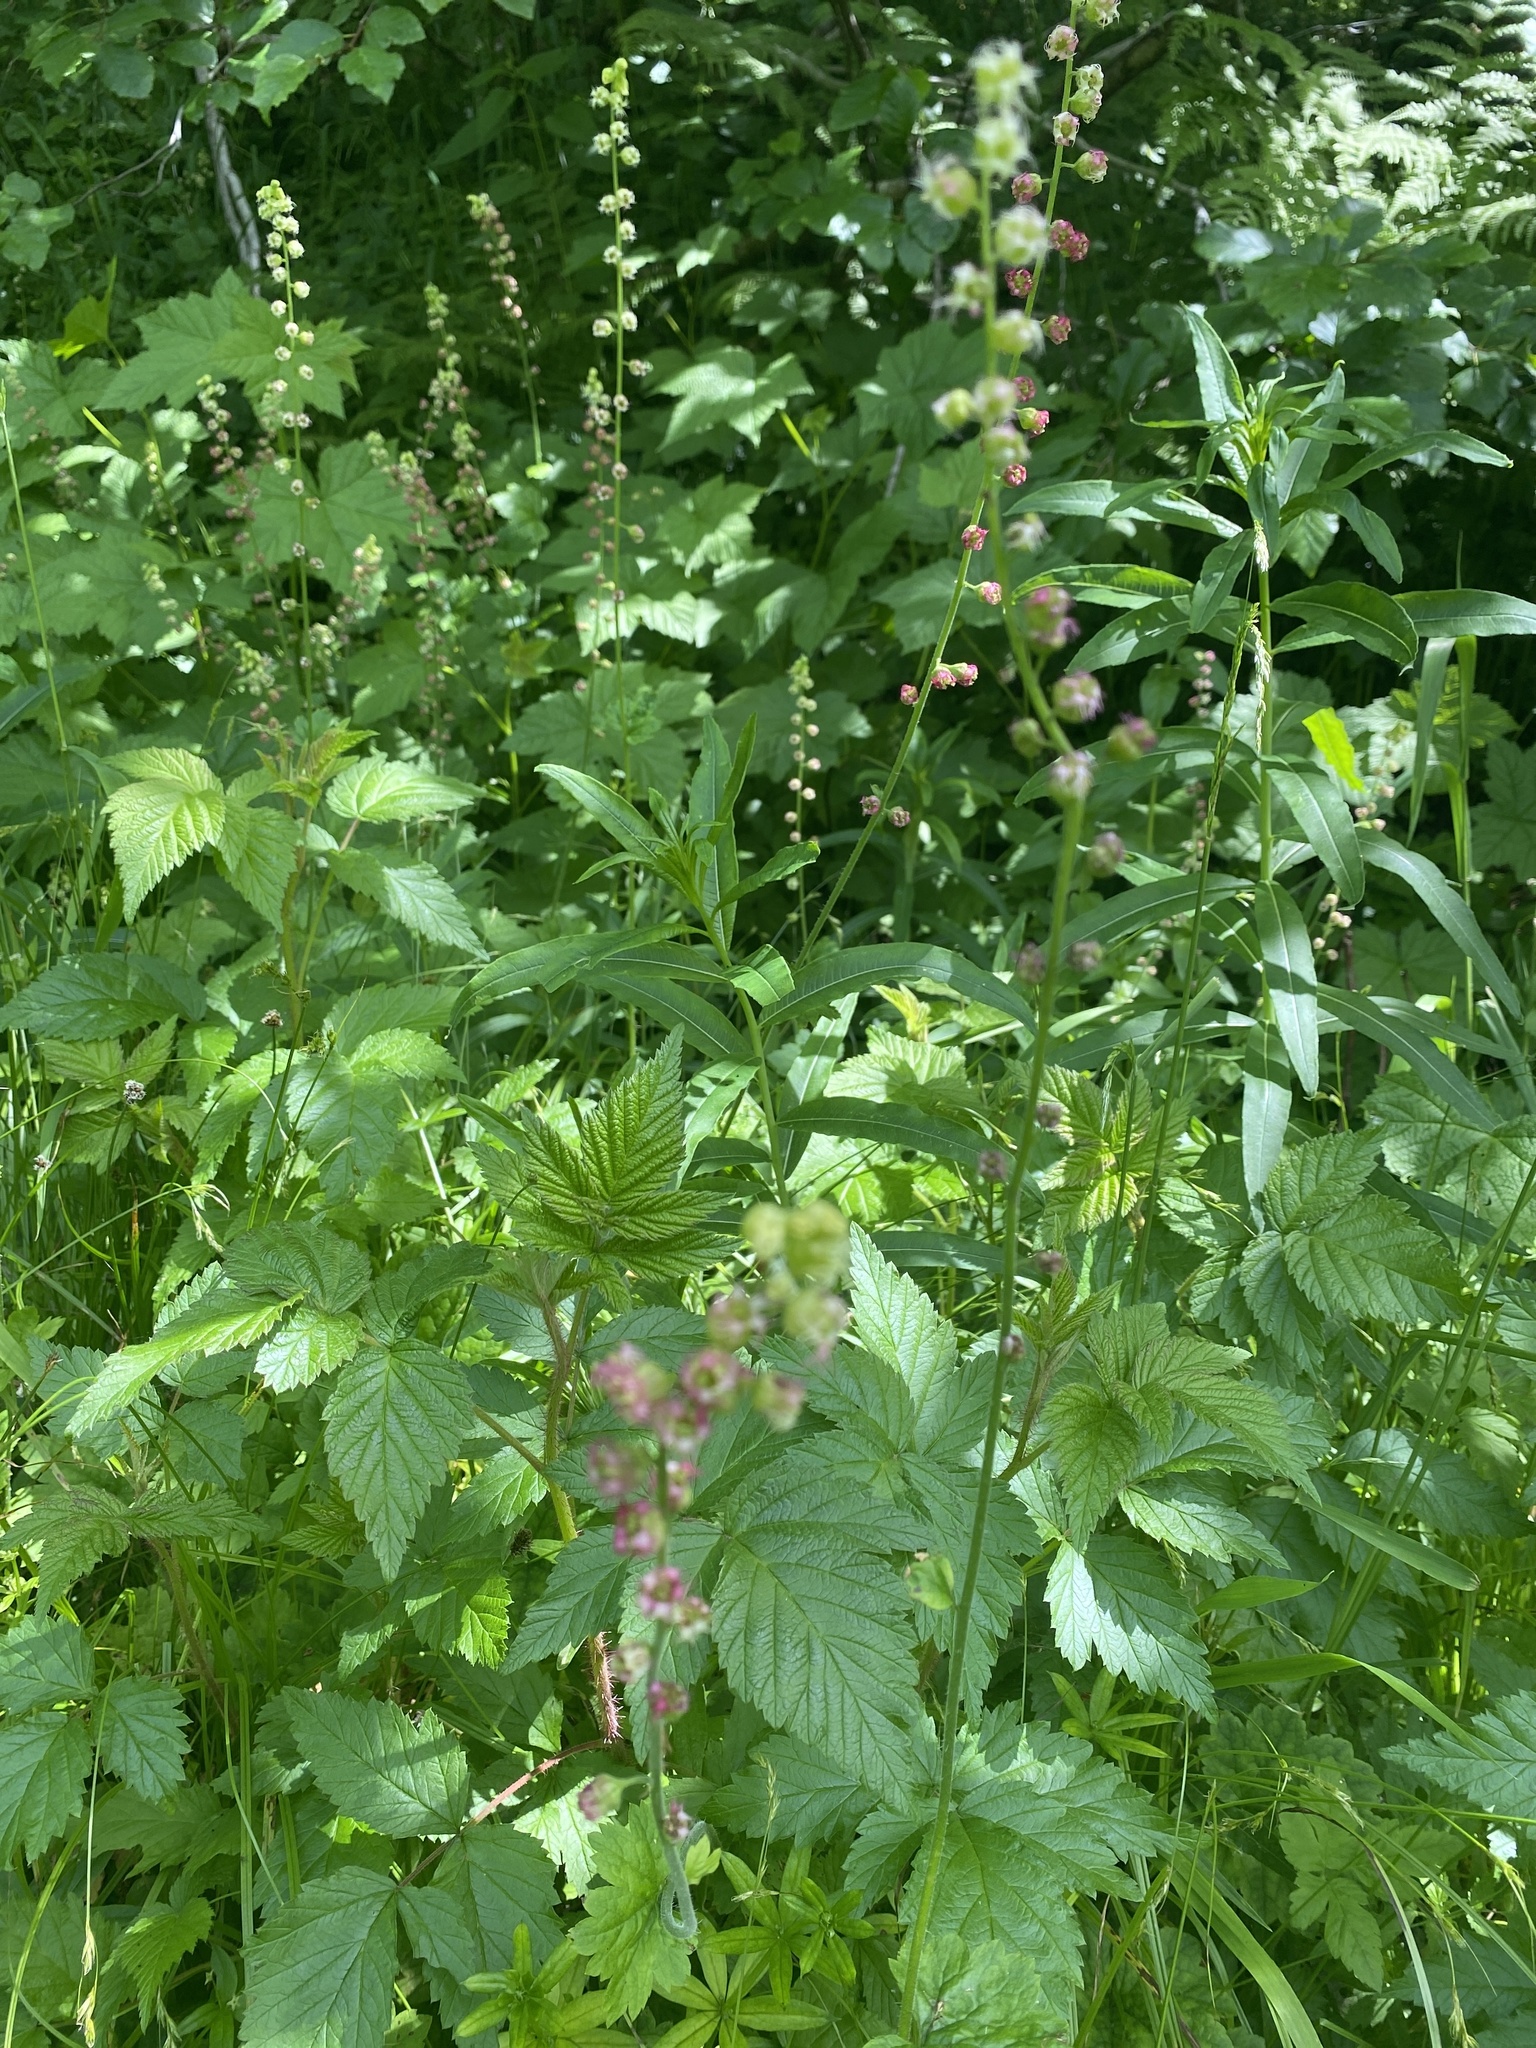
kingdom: Plantae
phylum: Tracheophyta
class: Magnoliopsida
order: Saxifragales
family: Saxifragaceae
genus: Tellima
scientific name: Tellima grandiflora
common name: Fringecups
